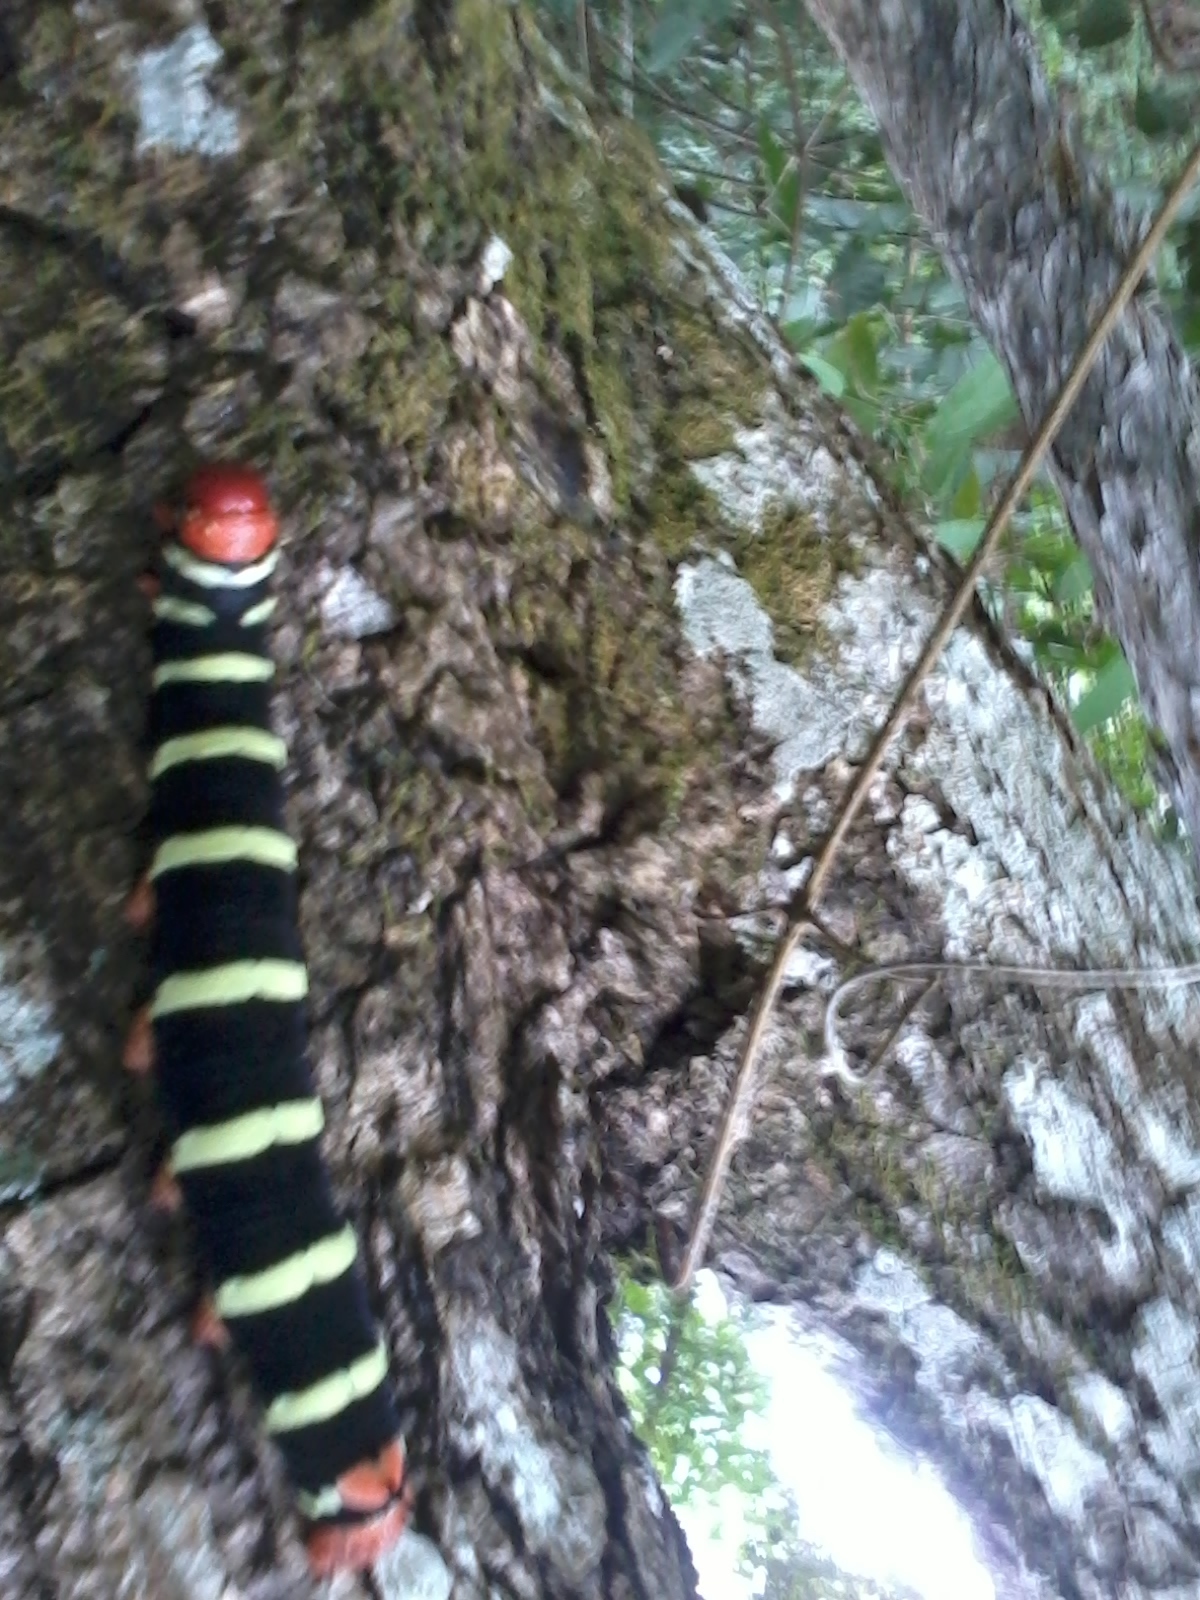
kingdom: Animalia
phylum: Arthropoda
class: Insecta
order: Lepidoptera
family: Sphingidae
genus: Pseudosphinx
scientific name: Pseudosphinx tetrio
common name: Tetrio sphinx
